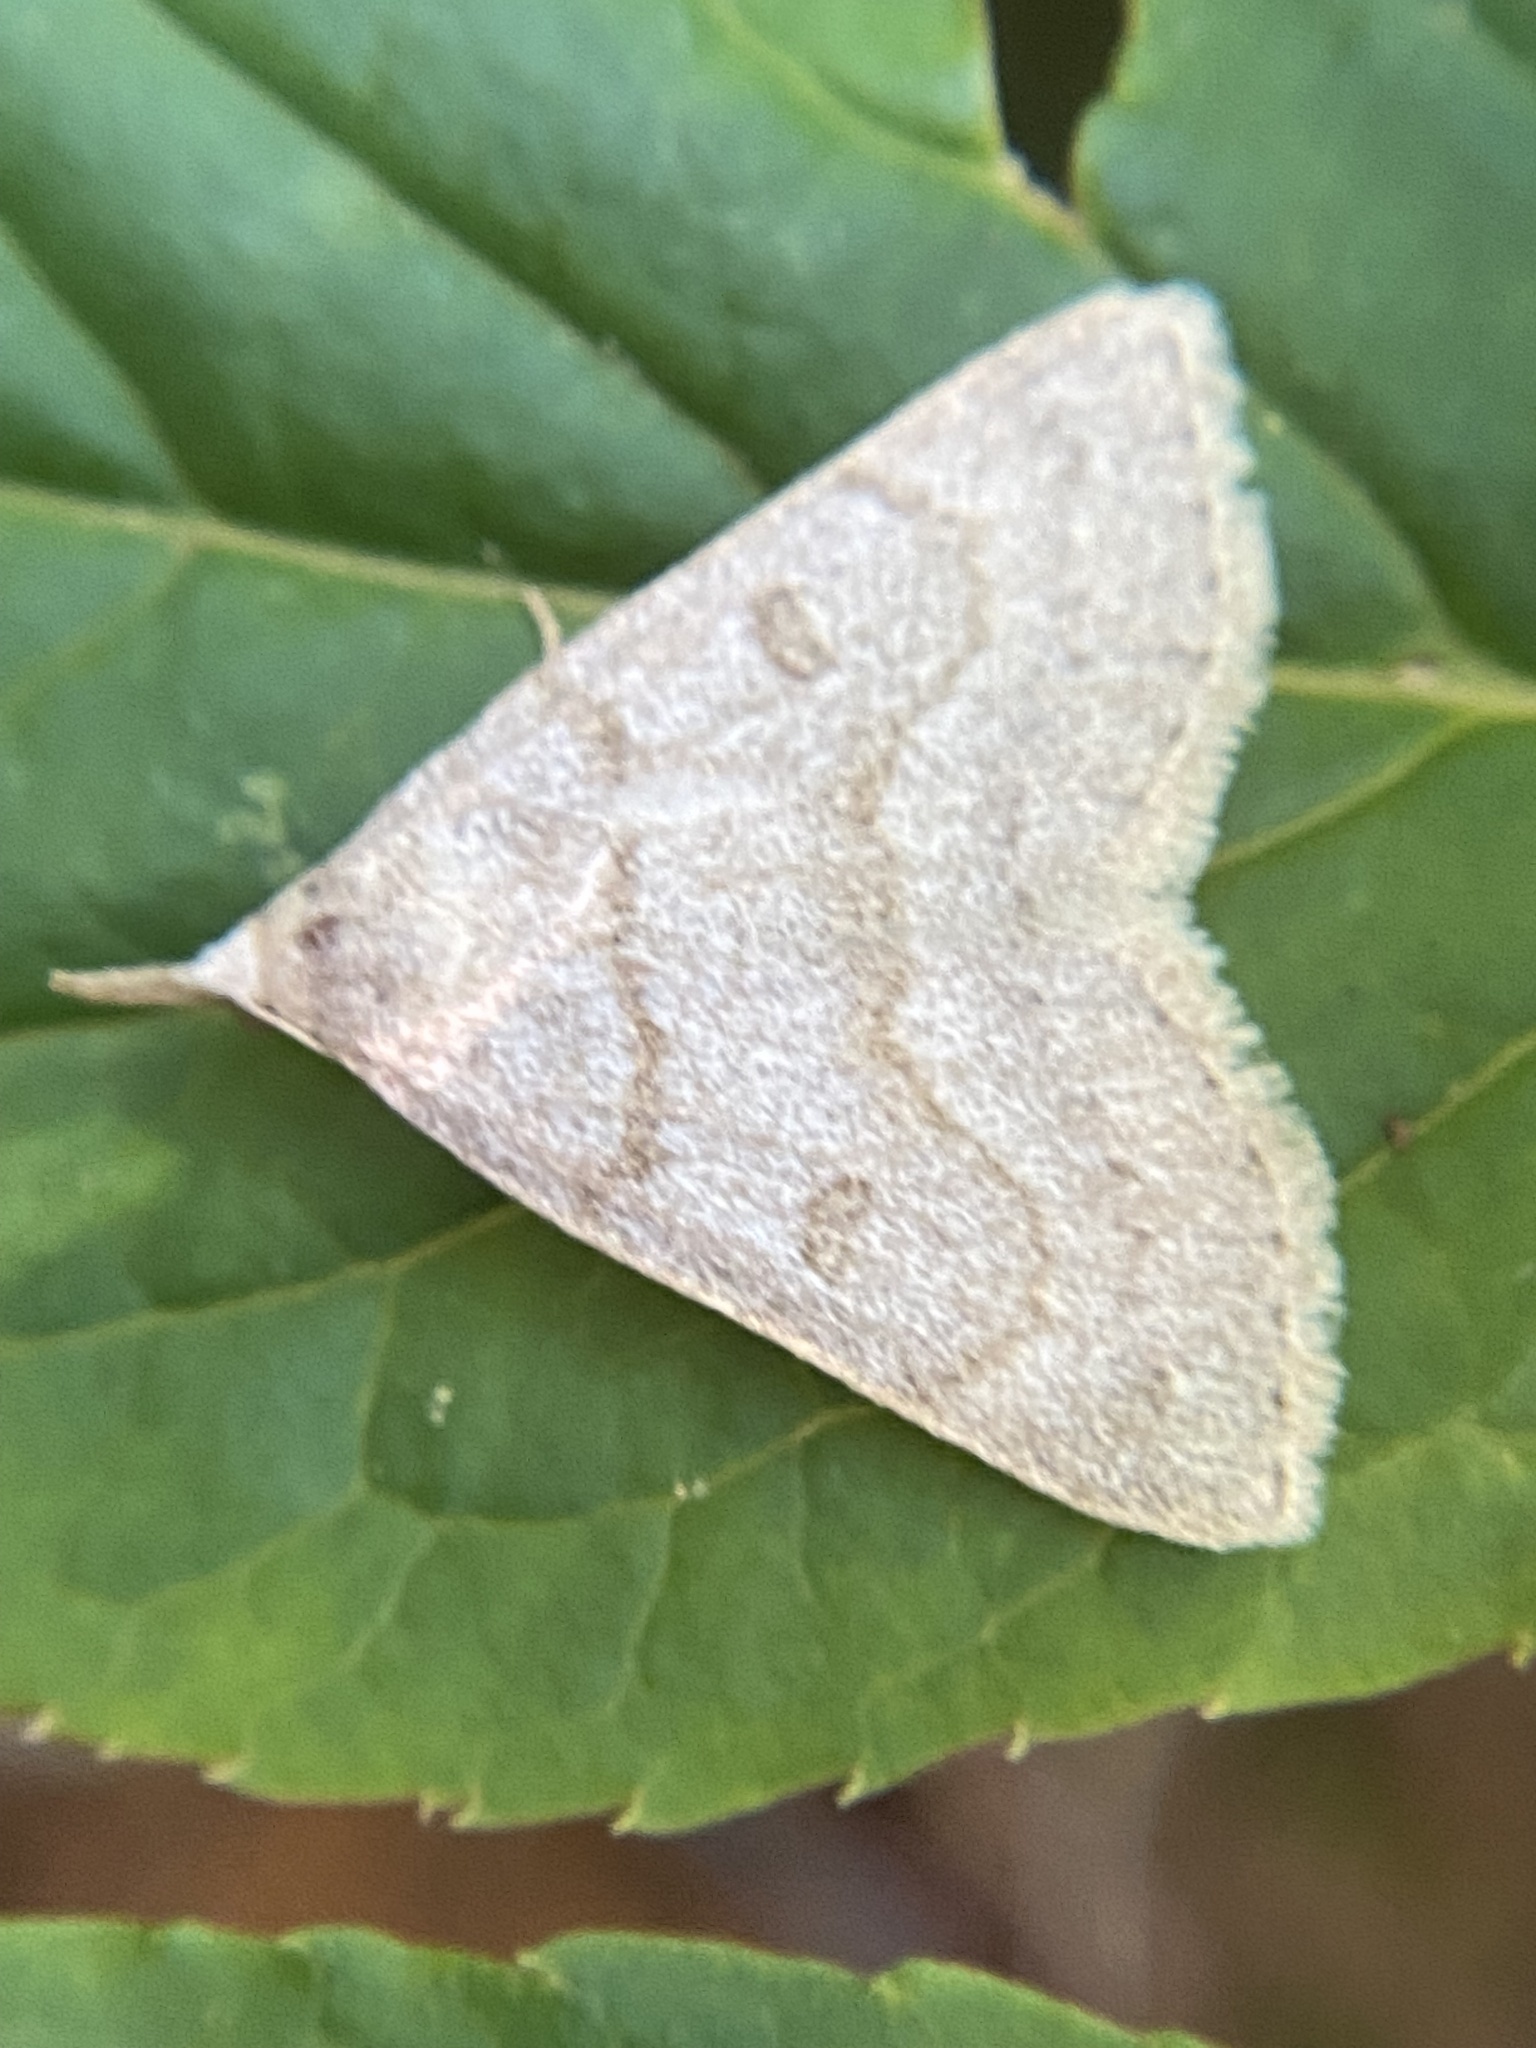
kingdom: Animalia
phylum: Arthropoda
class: Insecta
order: Lepidoptera
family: Erebidae
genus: Macrochilo
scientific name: Macrochilo morbidalis
